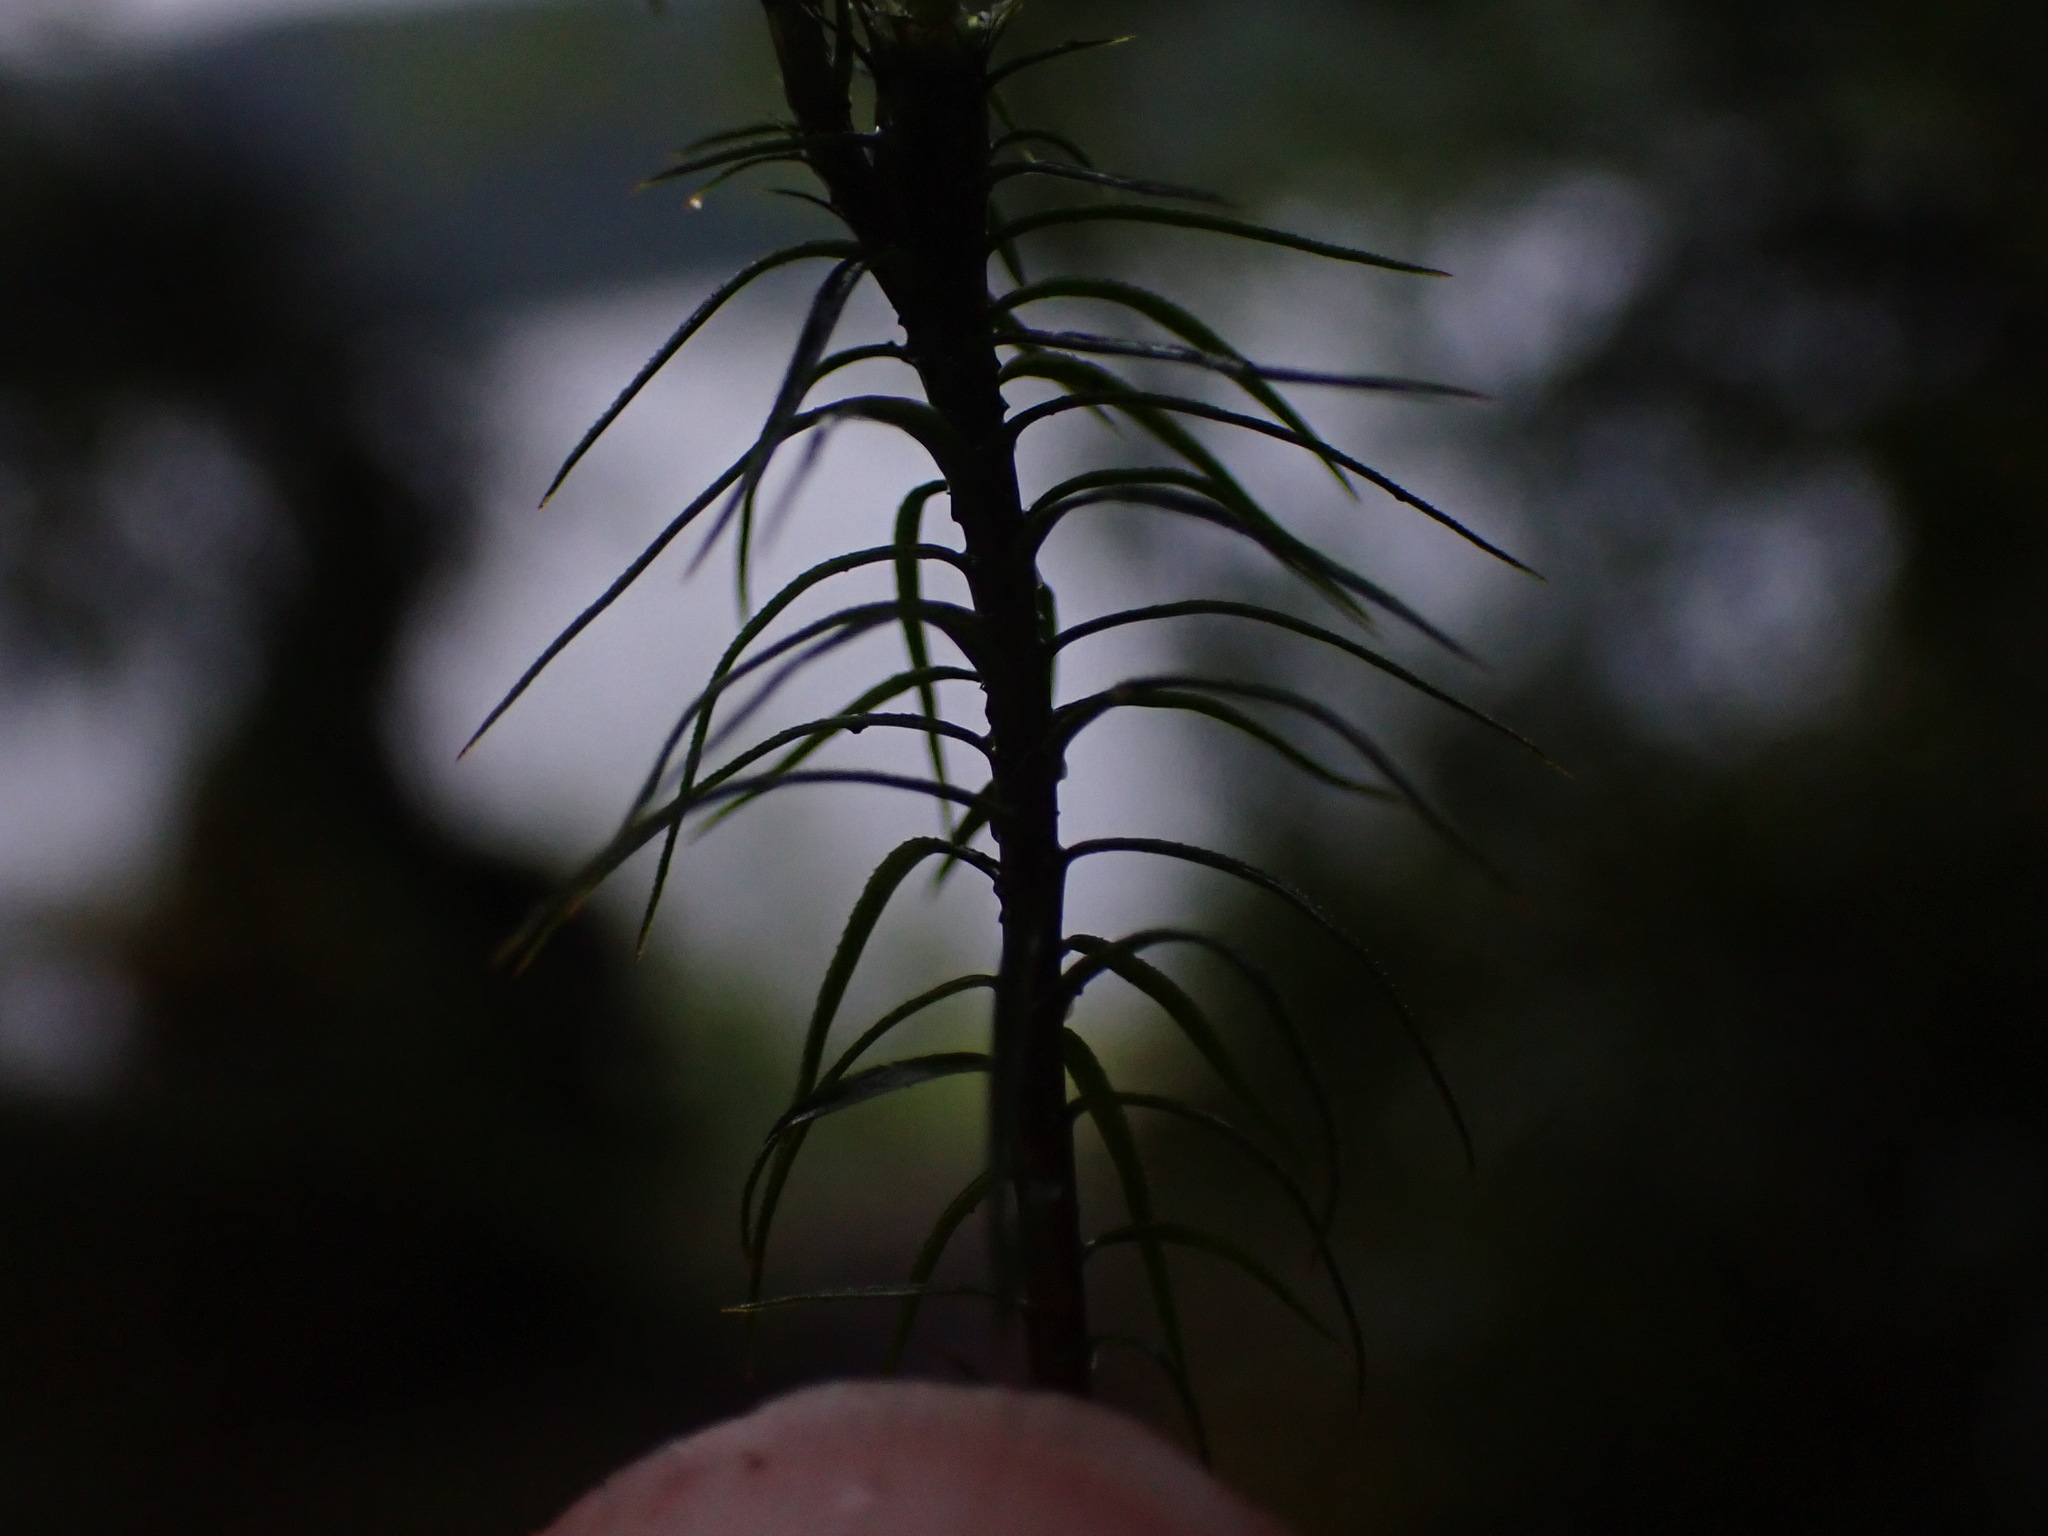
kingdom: Plantae
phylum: Bryophyta
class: Polytrichopsida
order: Polytrichales
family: Polytrichaceae
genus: Polytrichastrum
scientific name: Polytrichastrum alpinum
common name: Alpine haircap
